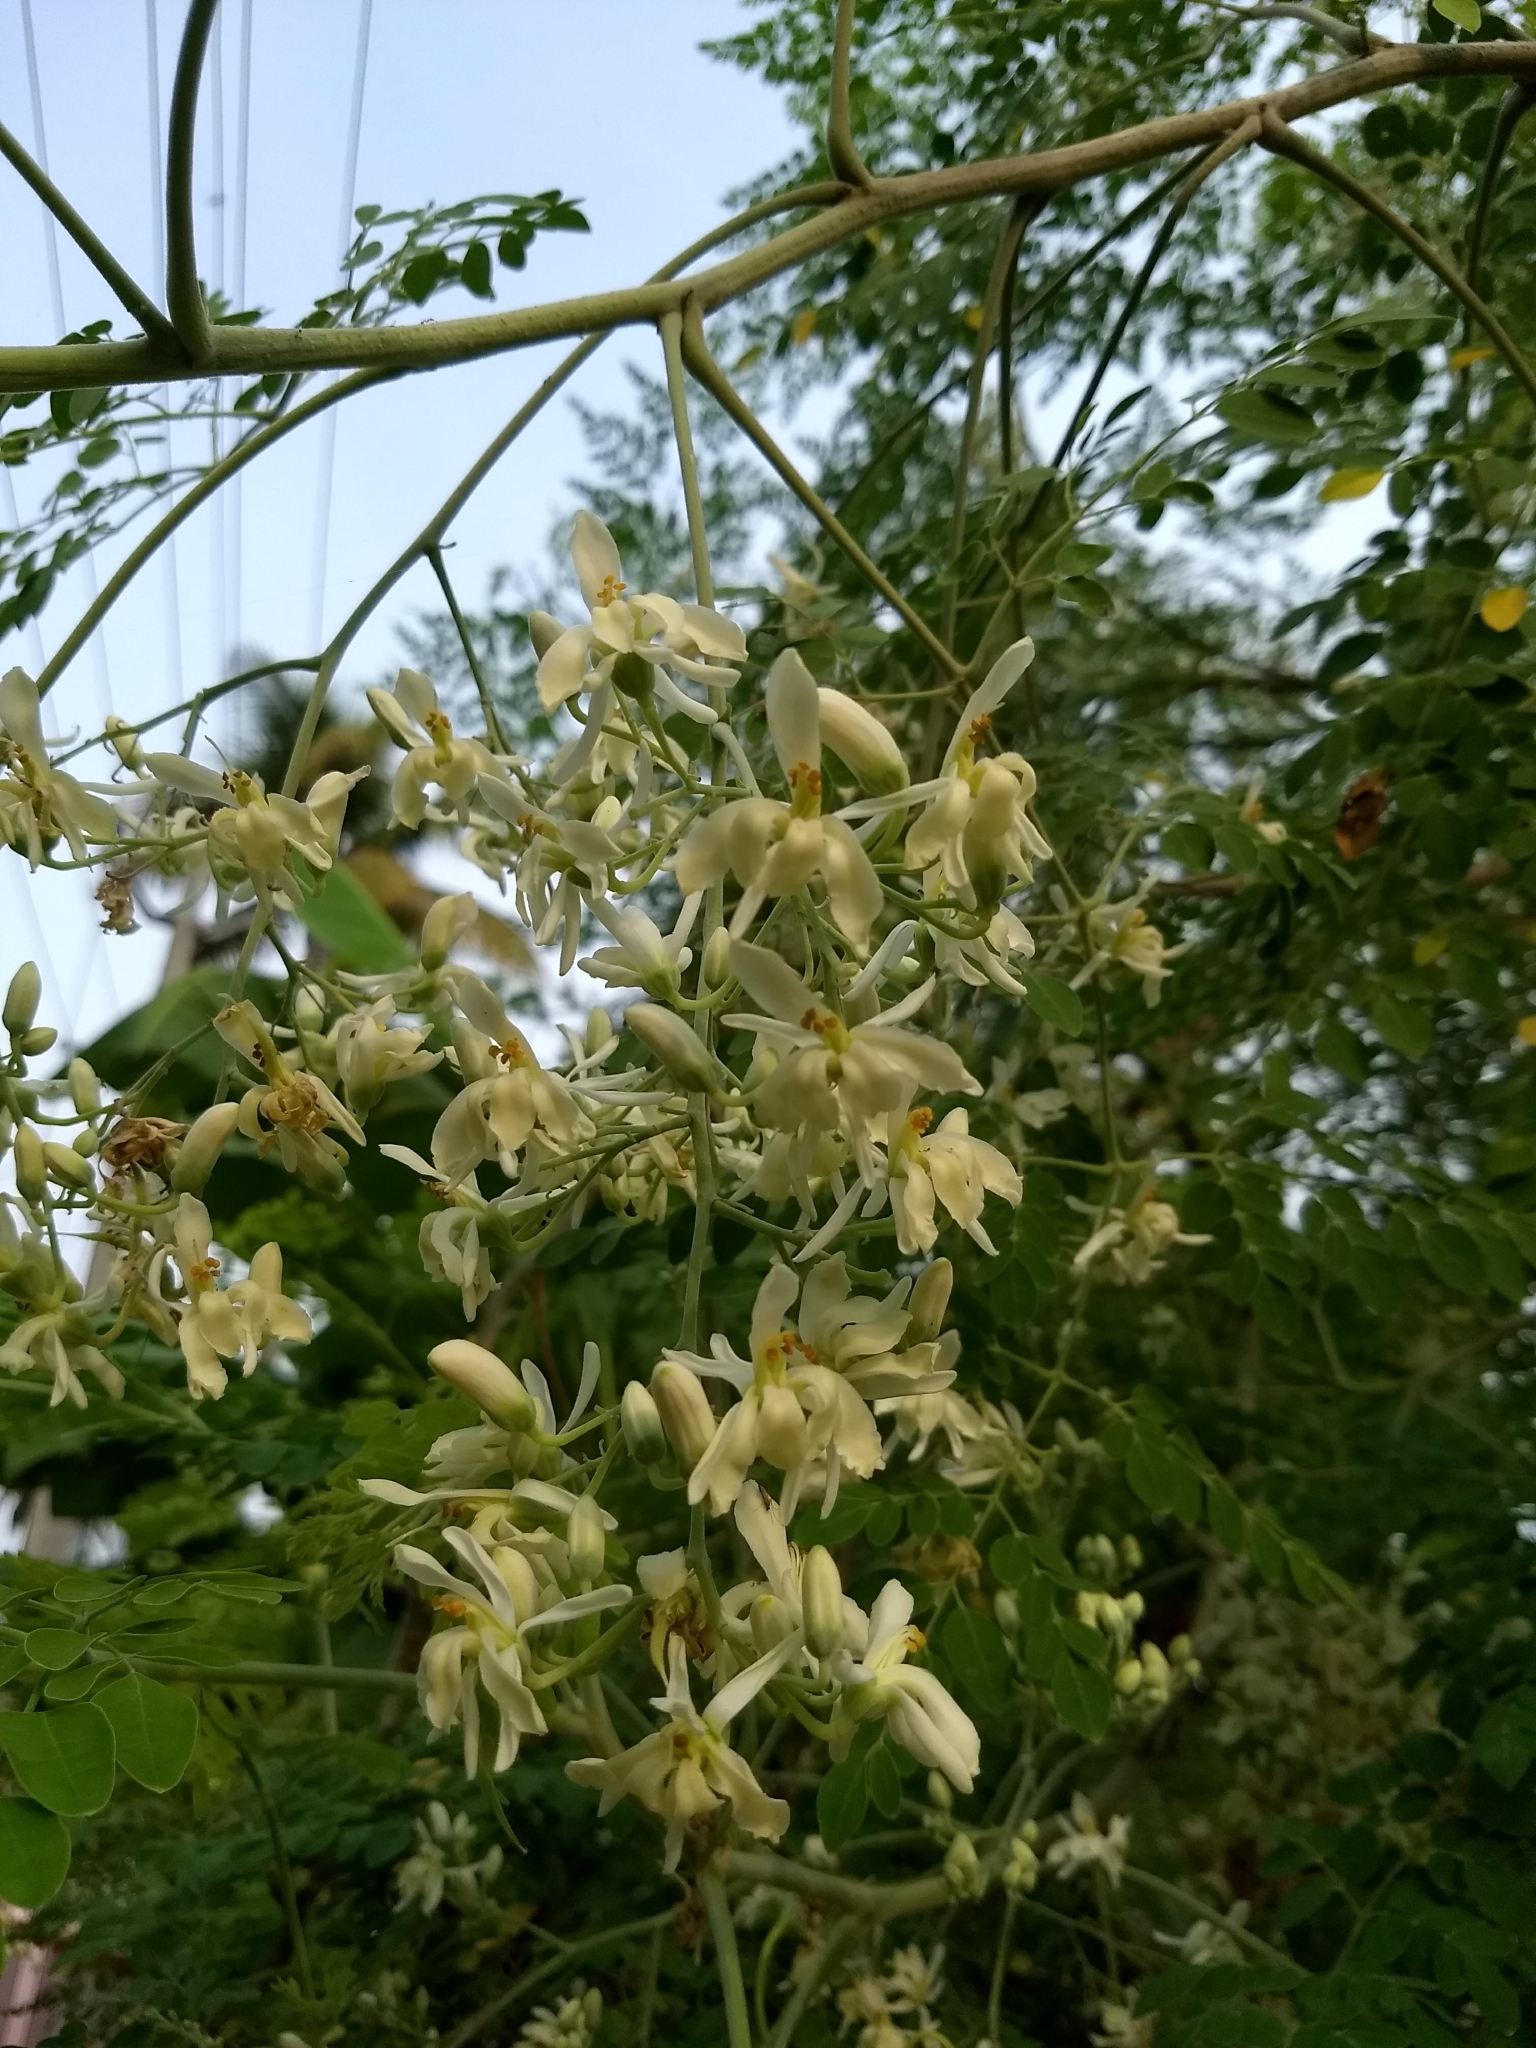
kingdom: Plantae
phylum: Tracheophyta
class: Magnoliopsida
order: Brassicales
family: Moringaceae
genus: Moringa
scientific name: Moringa oleifera
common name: Horseradish-tree
